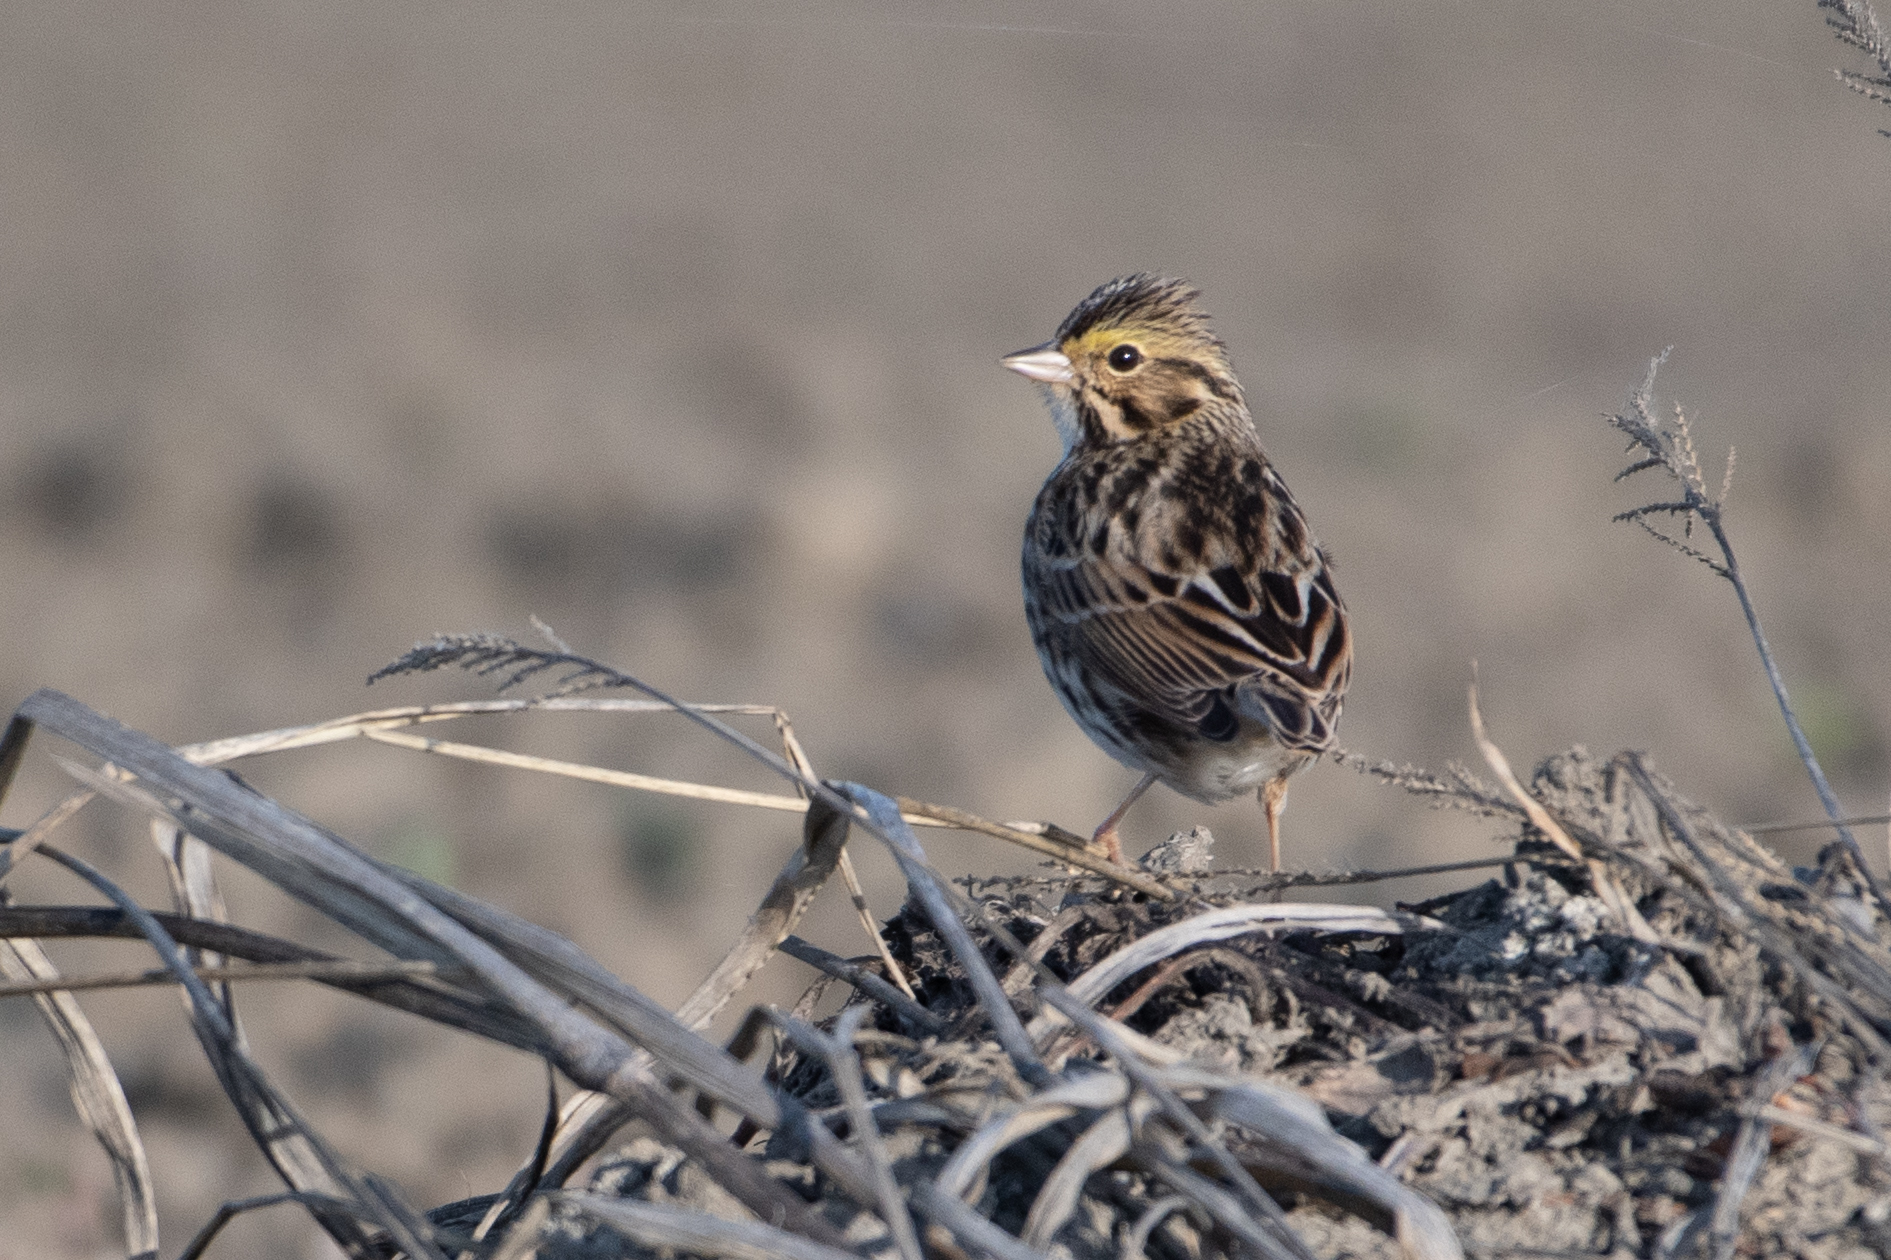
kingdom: Animalia
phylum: Chordata
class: Aves
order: Passeriformes
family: Passerellidae
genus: Passerculus
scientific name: Passerculus sandwichensis
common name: Savannah sparrow
